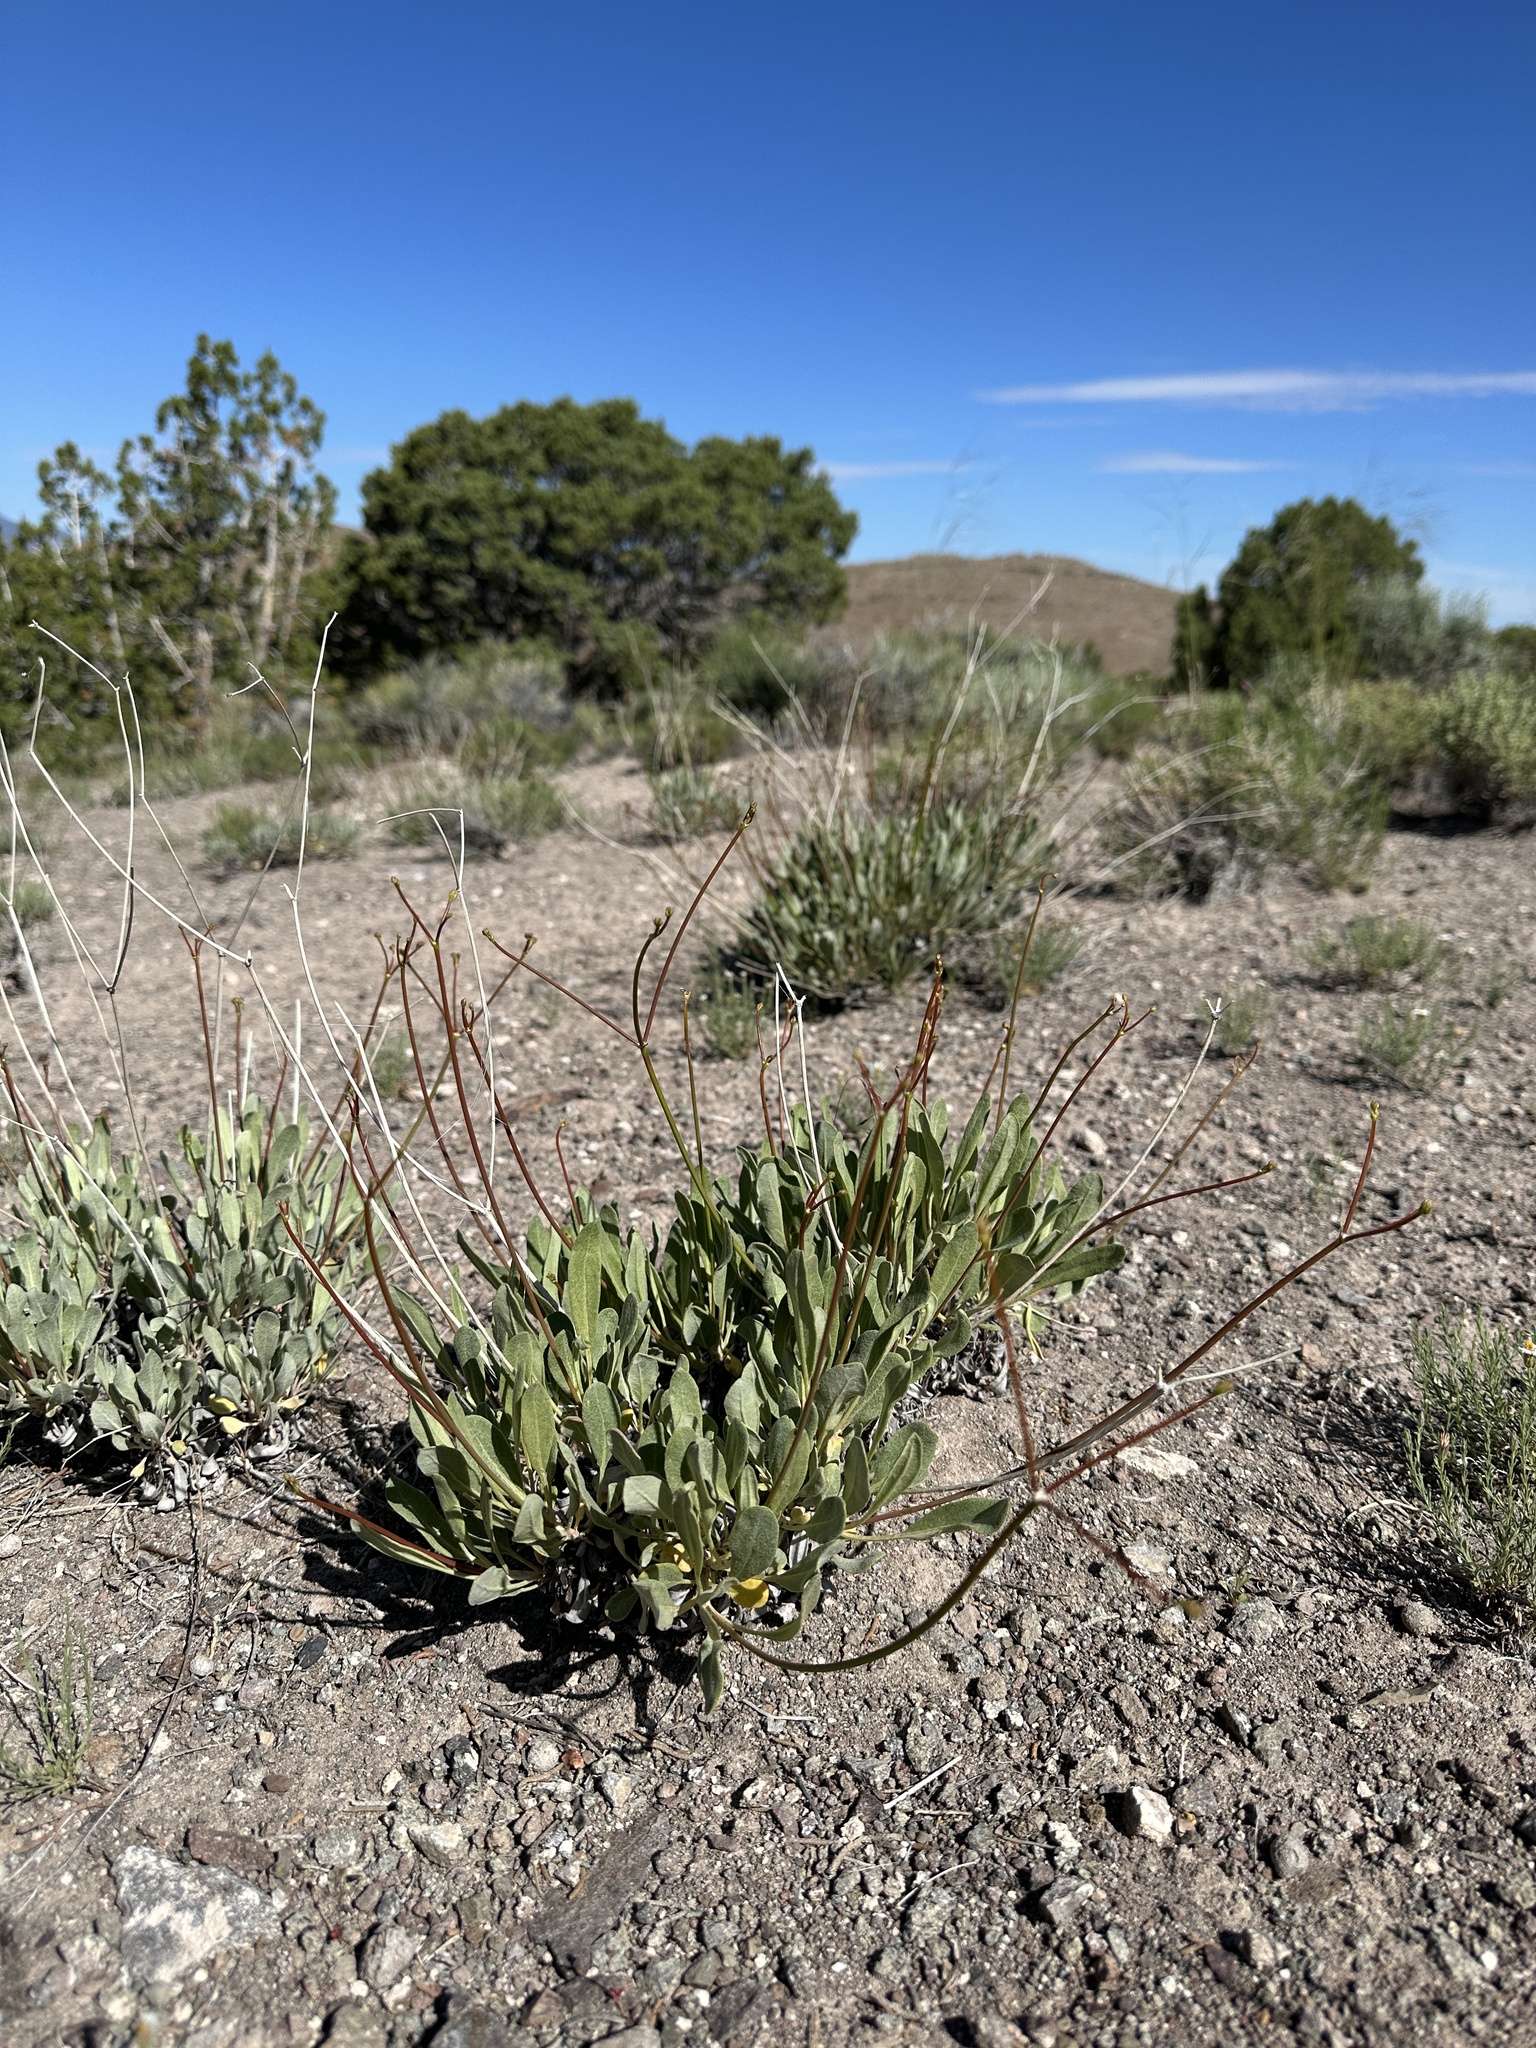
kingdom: Plantae
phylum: Tracheophyta
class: Magnoliopsida
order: Caryophyllales
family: Polygonaceae
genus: Eriogonum
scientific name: Eriogonum artificis
